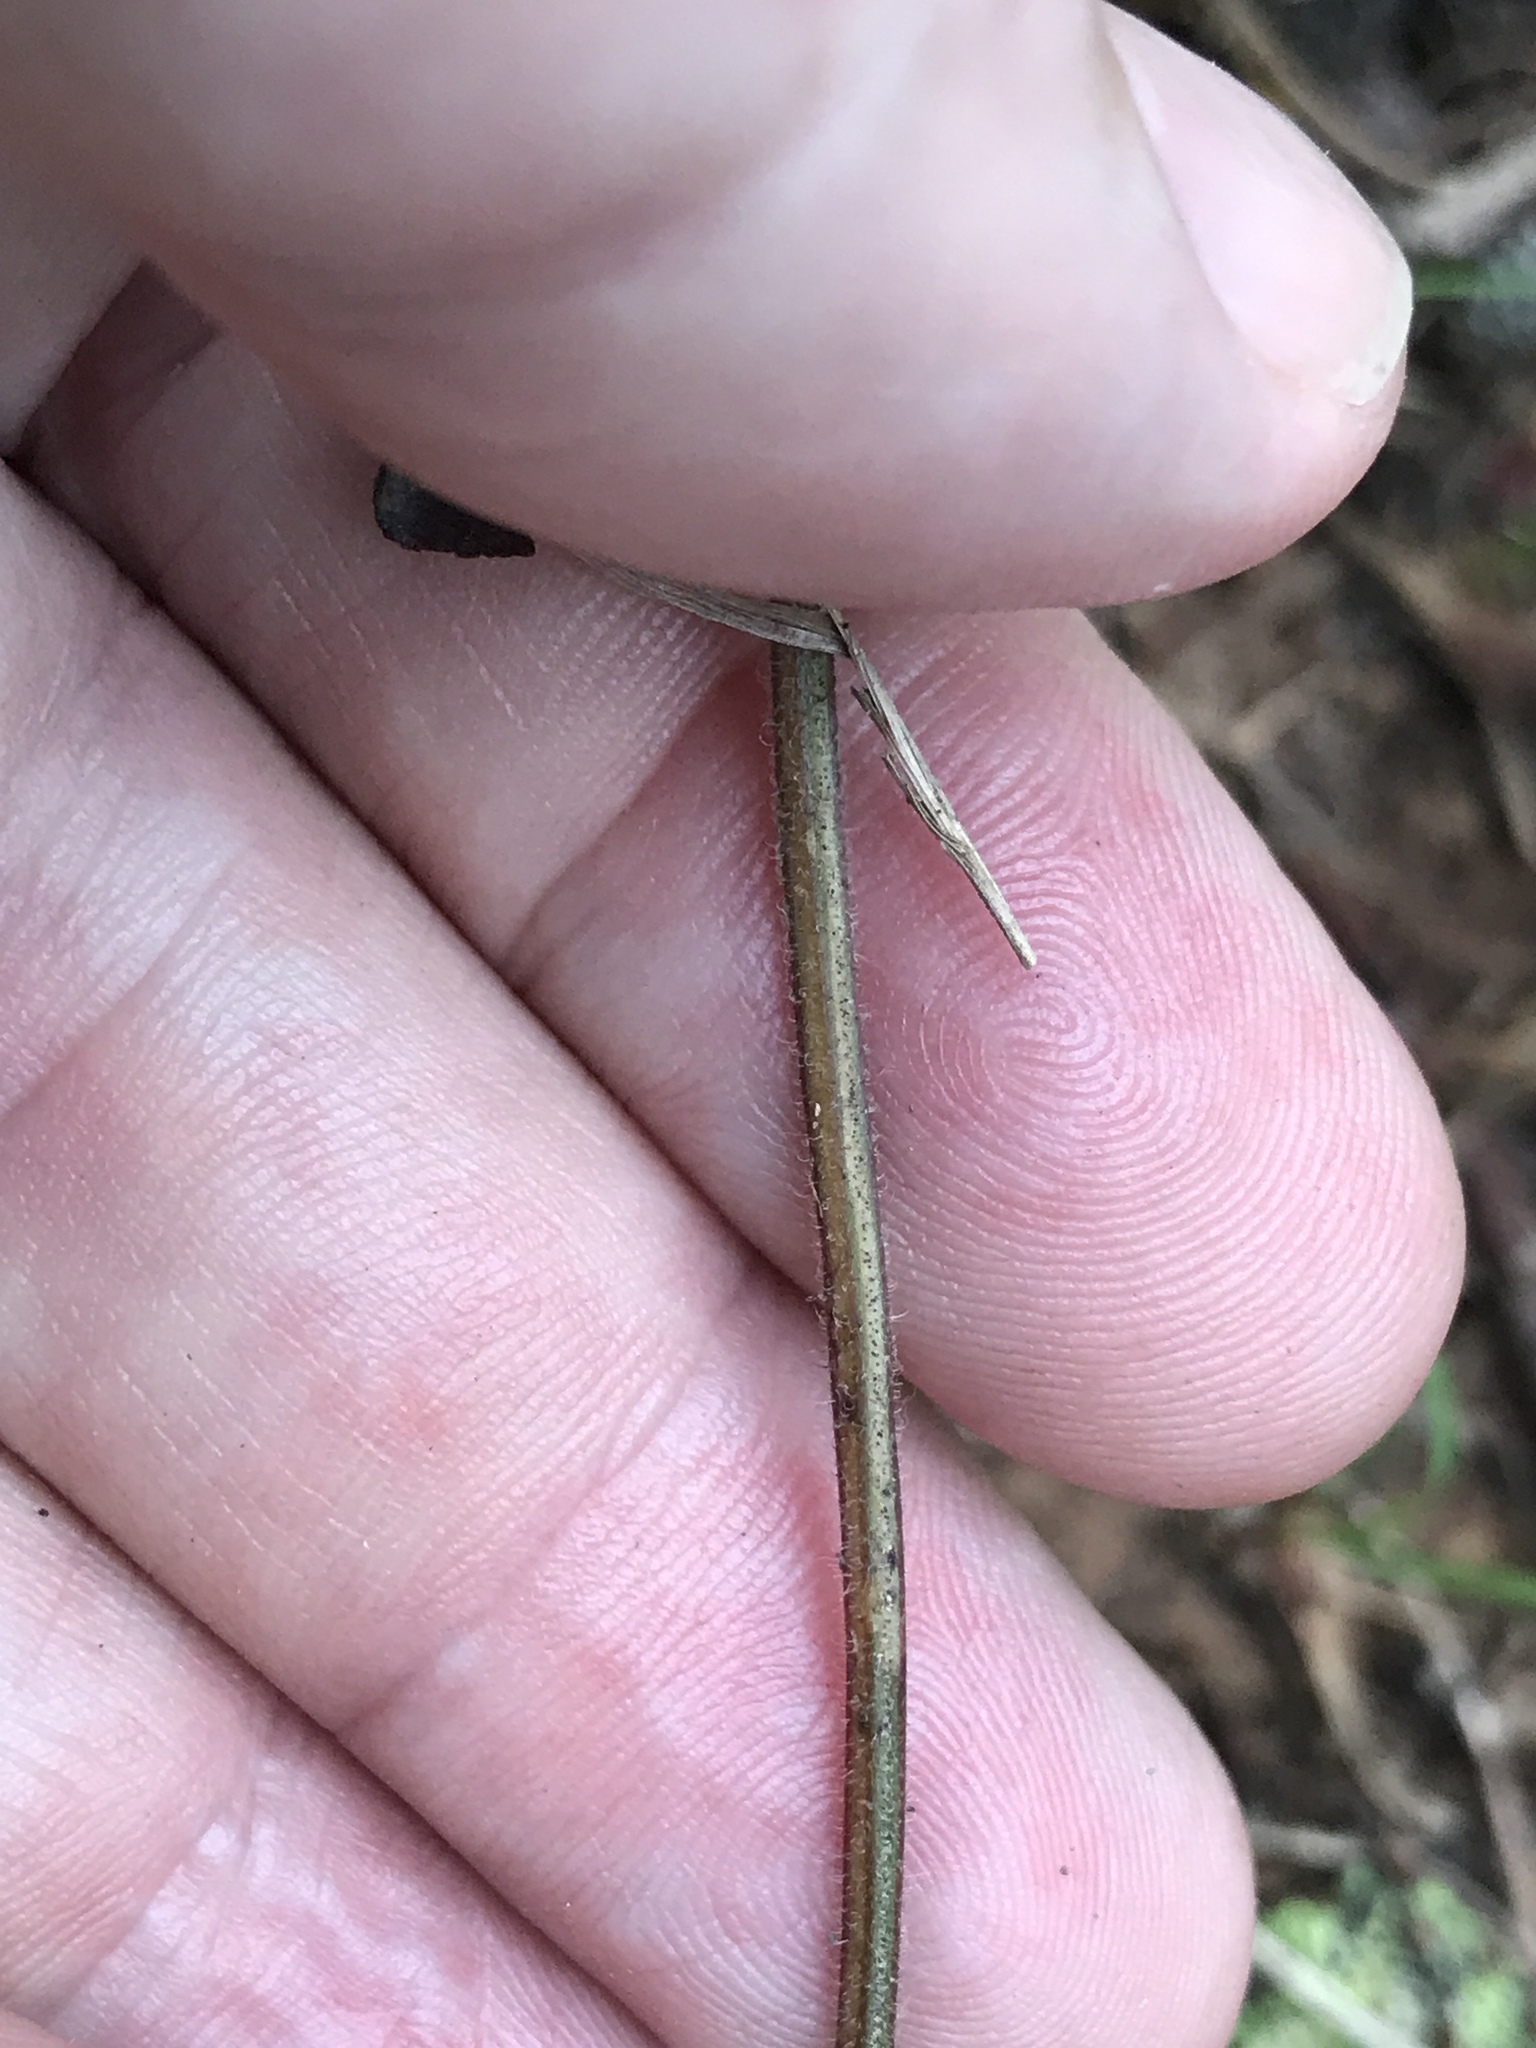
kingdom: Plantae
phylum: Tracheophyta
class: Magnoliopsida
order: Lamiales
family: Lamiaceae
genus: Scutellaria
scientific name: Scutellaria elliptica
